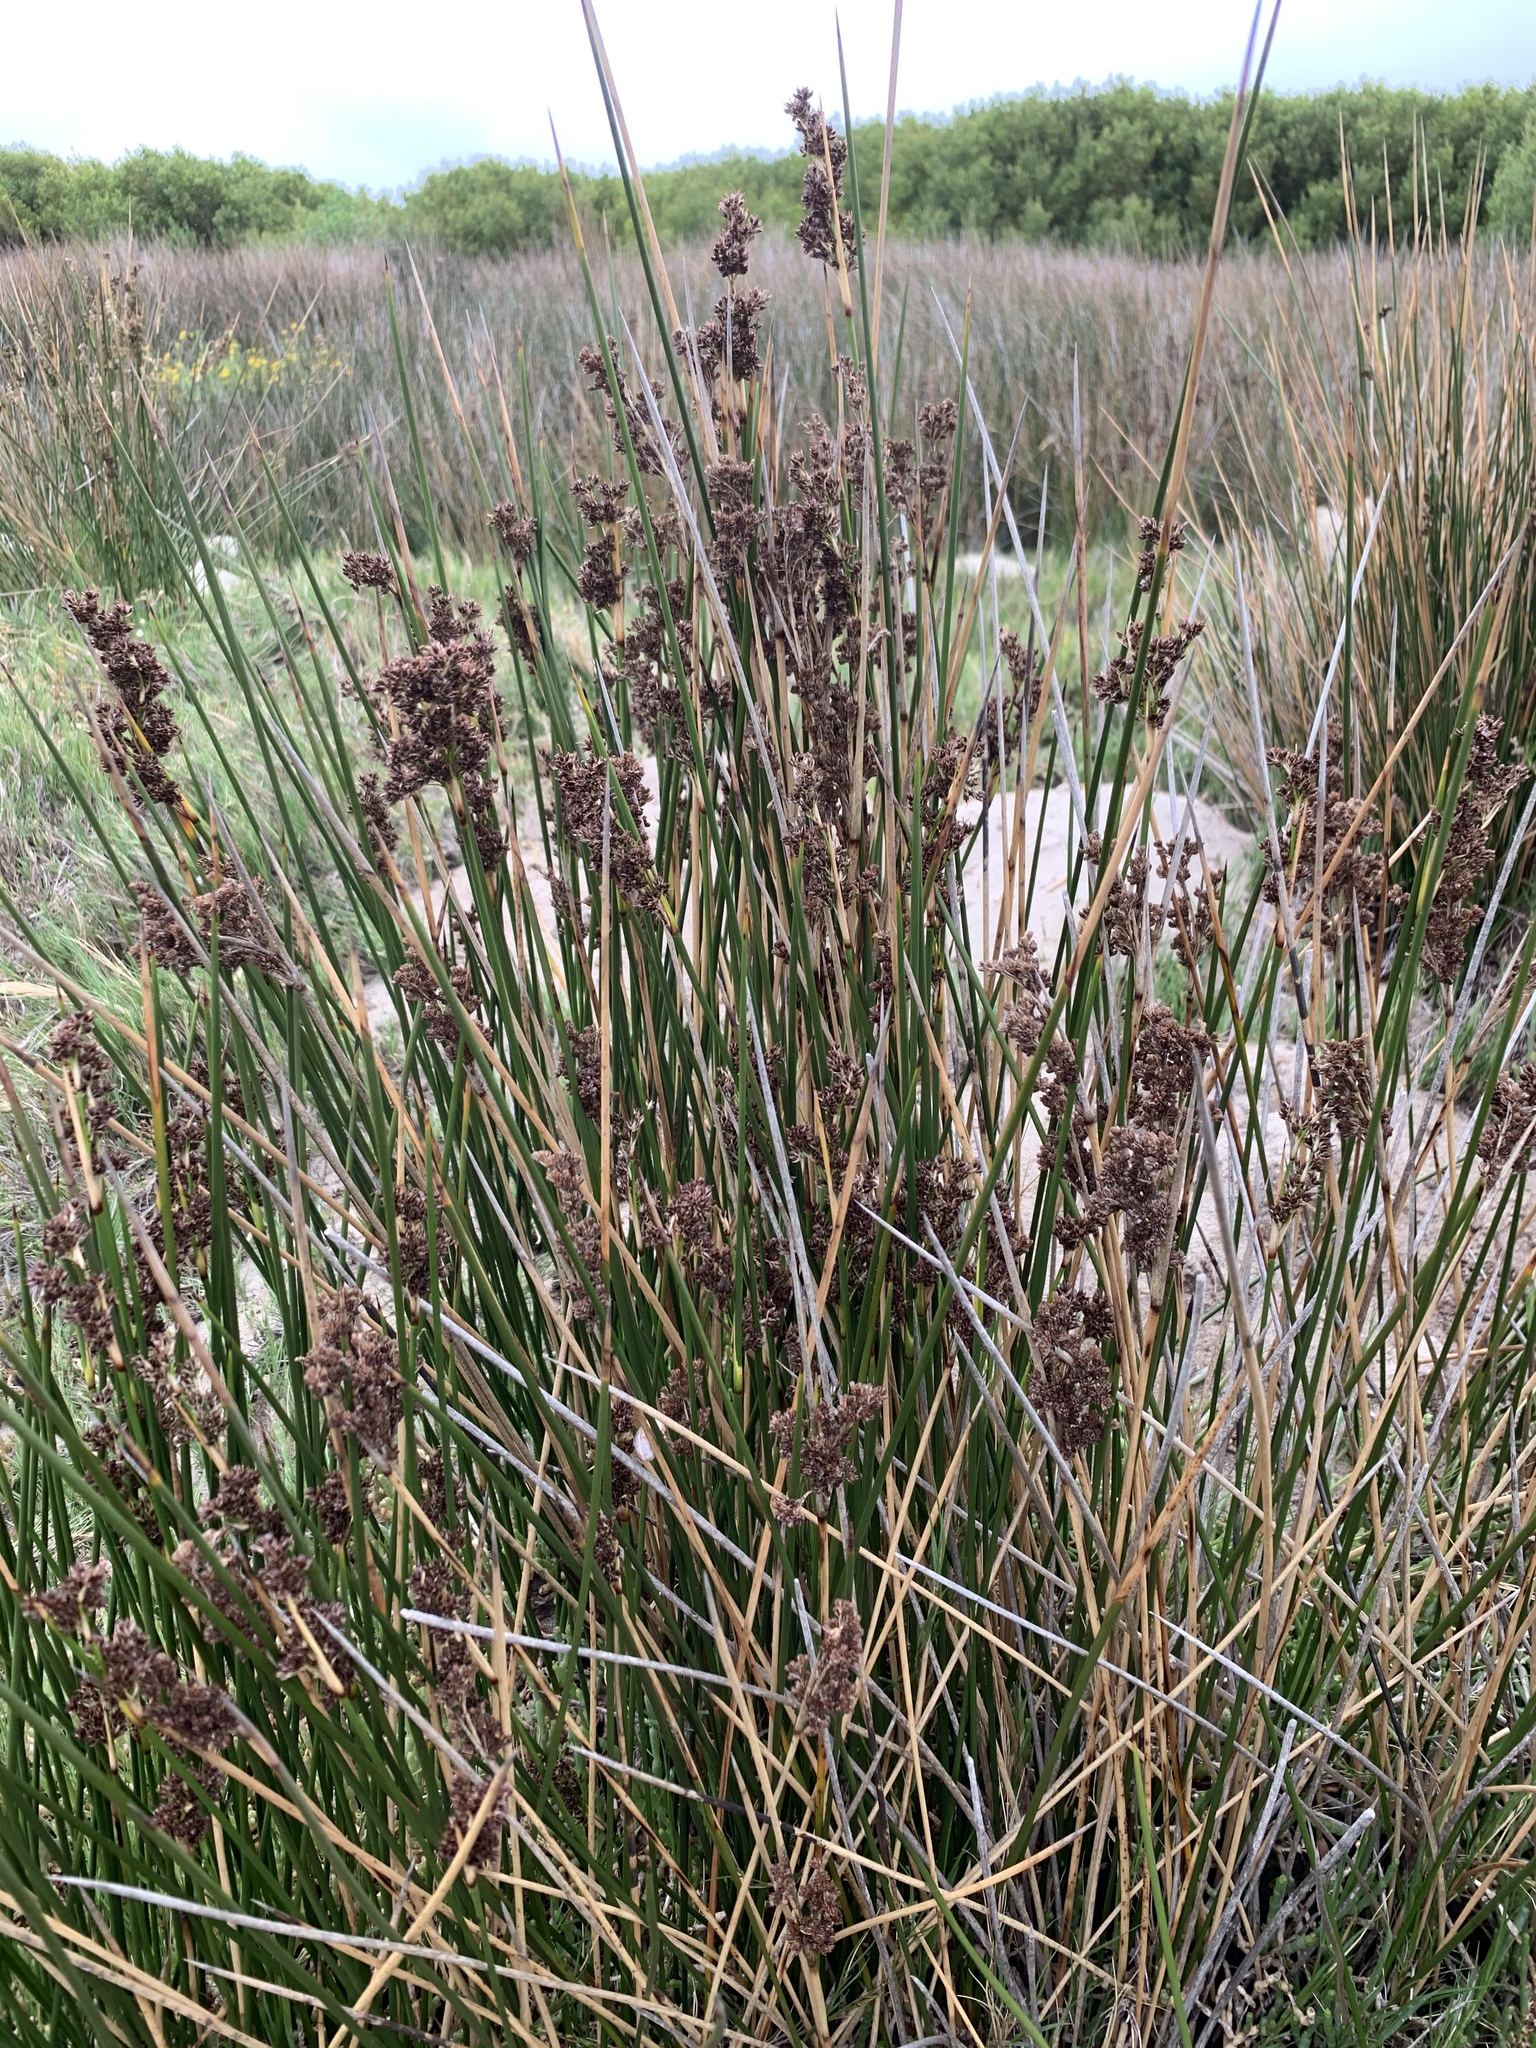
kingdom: Plantae
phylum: Tracheophyta
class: Liliopsida
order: Poales
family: Juncaceae
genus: Juncus
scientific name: Juncus kraussii
